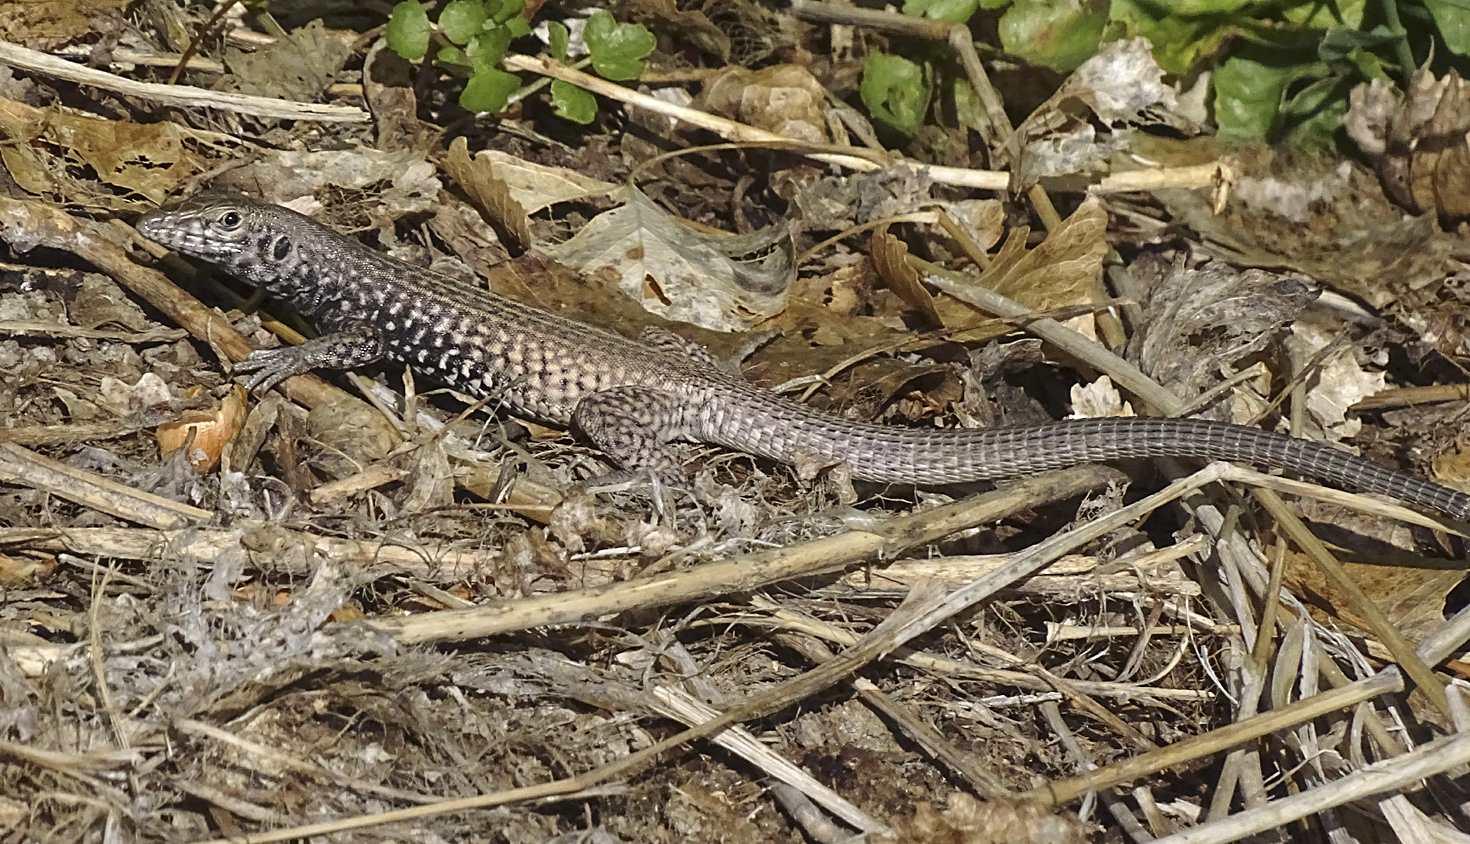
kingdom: Animalia
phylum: Chordata
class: Squamata
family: Teiidae
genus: Aspidoscelis
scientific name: Aspidoscelis tigris
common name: Tiger whiptail
